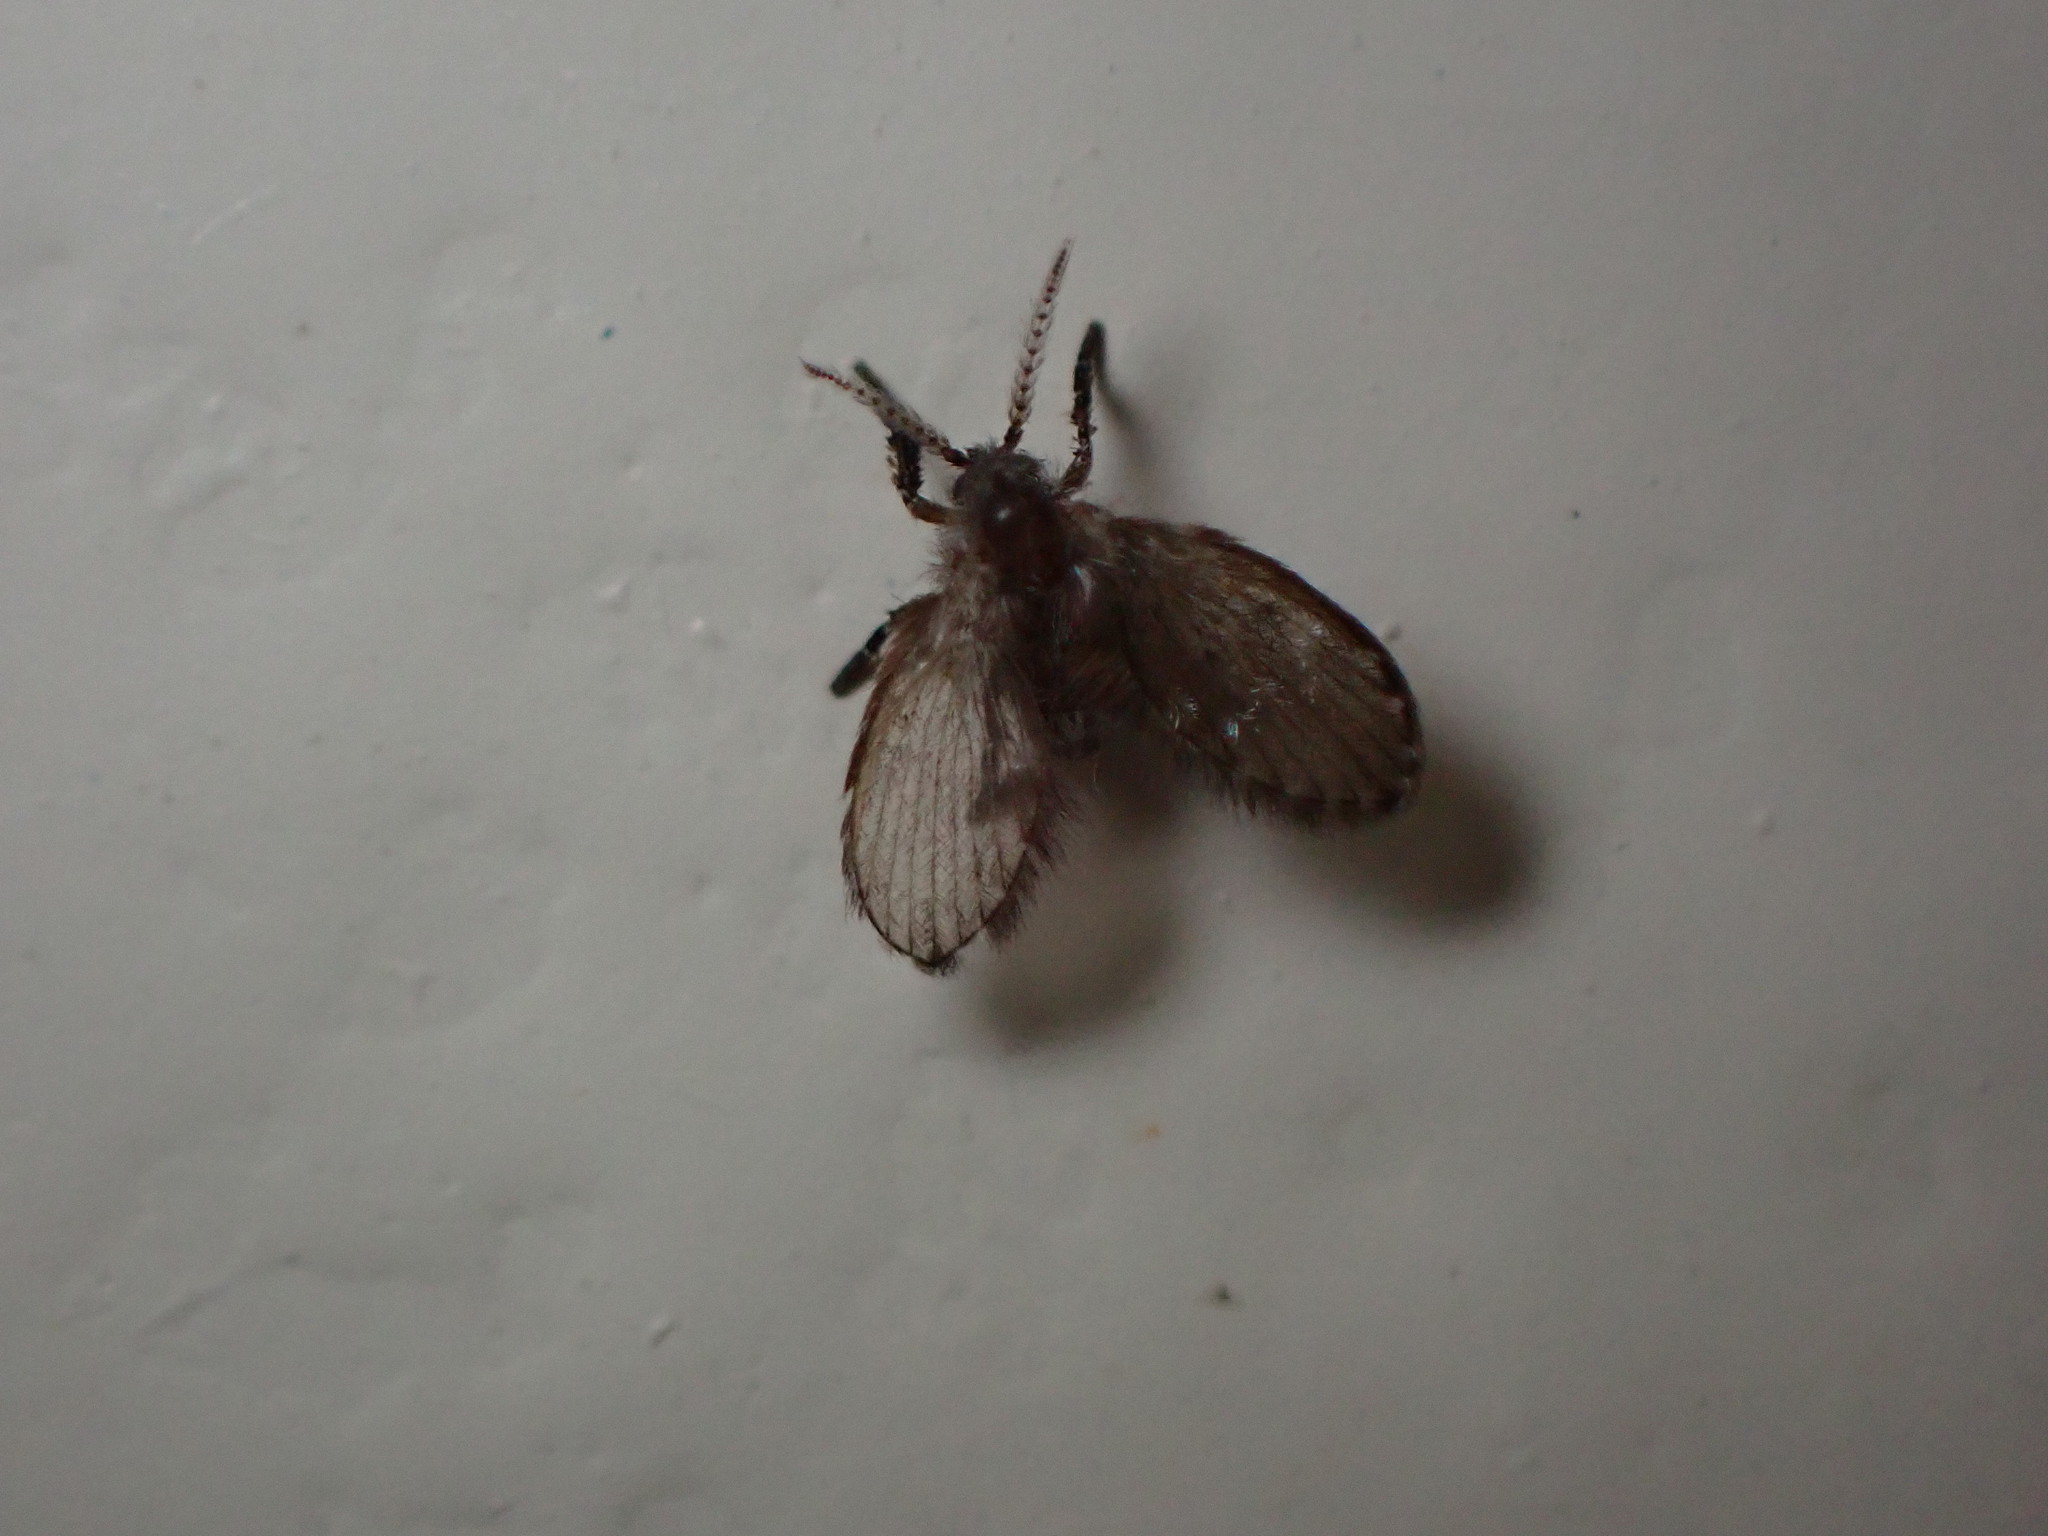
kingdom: Animalia
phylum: Arthropoda
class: Insecta
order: Diptera
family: Psychodidae
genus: Clogmia
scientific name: Clogmia albipunctatus
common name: White-spotted moth fly
